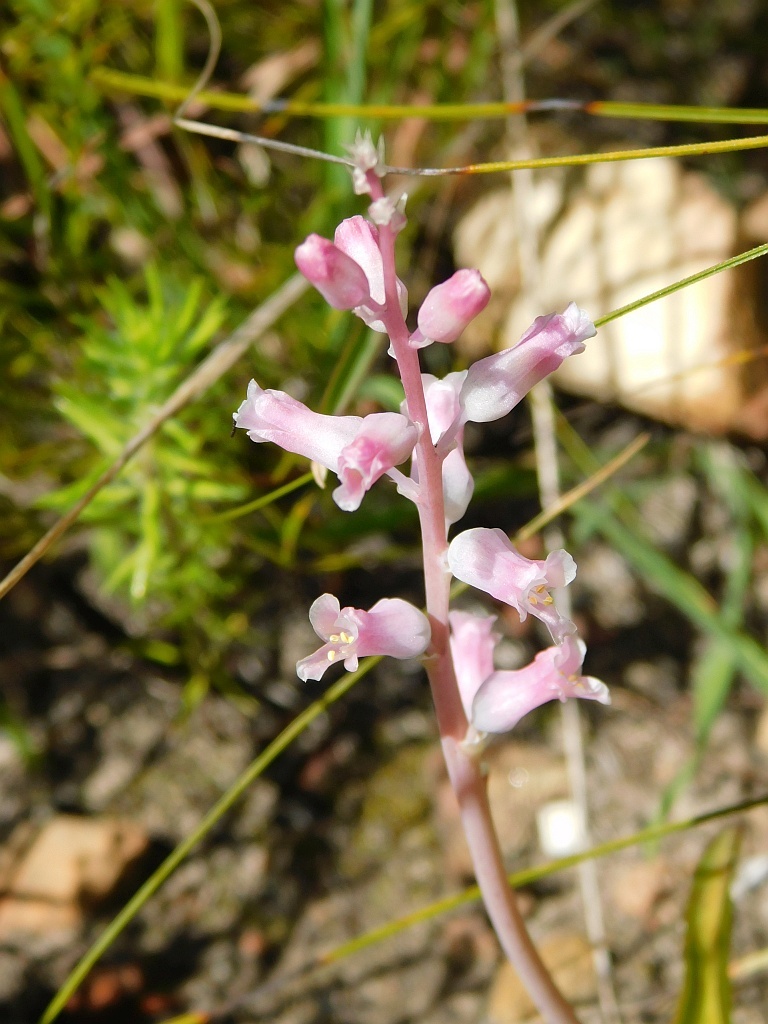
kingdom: Plantae
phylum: Tracheophyta
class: Liliopsida
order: Asparagales
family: Asparagaceae
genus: Lachenalia
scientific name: Lachenalia rosea
